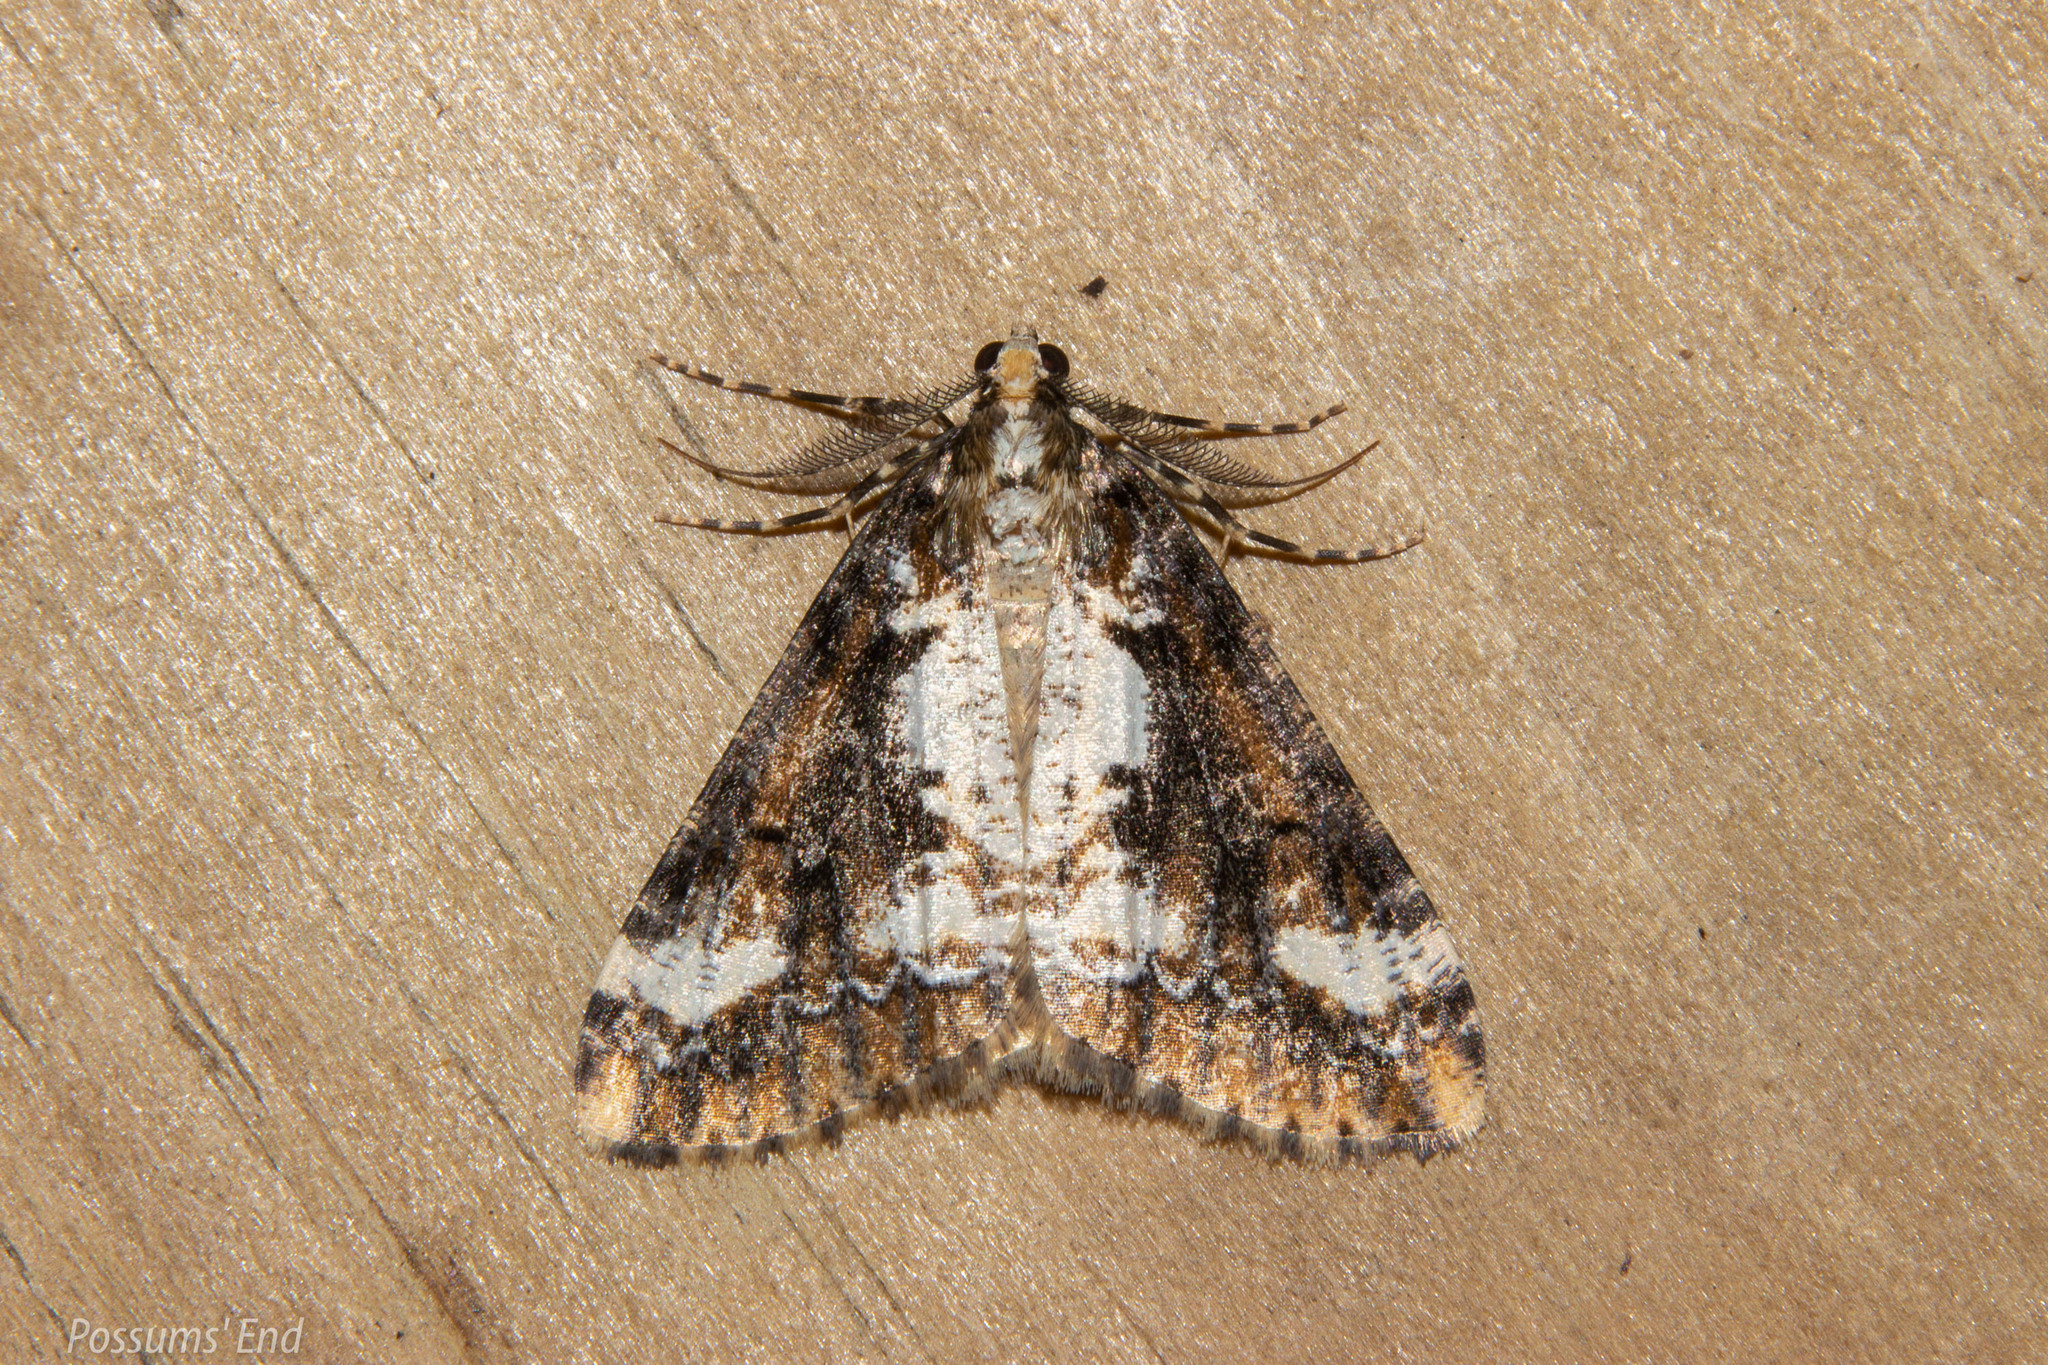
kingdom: Animalia
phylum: Arthropoda
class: Insecta
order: Lepidoptera
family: Geometridae
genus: Pseudocoremia
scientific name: Pseudocoremia leucelaea
